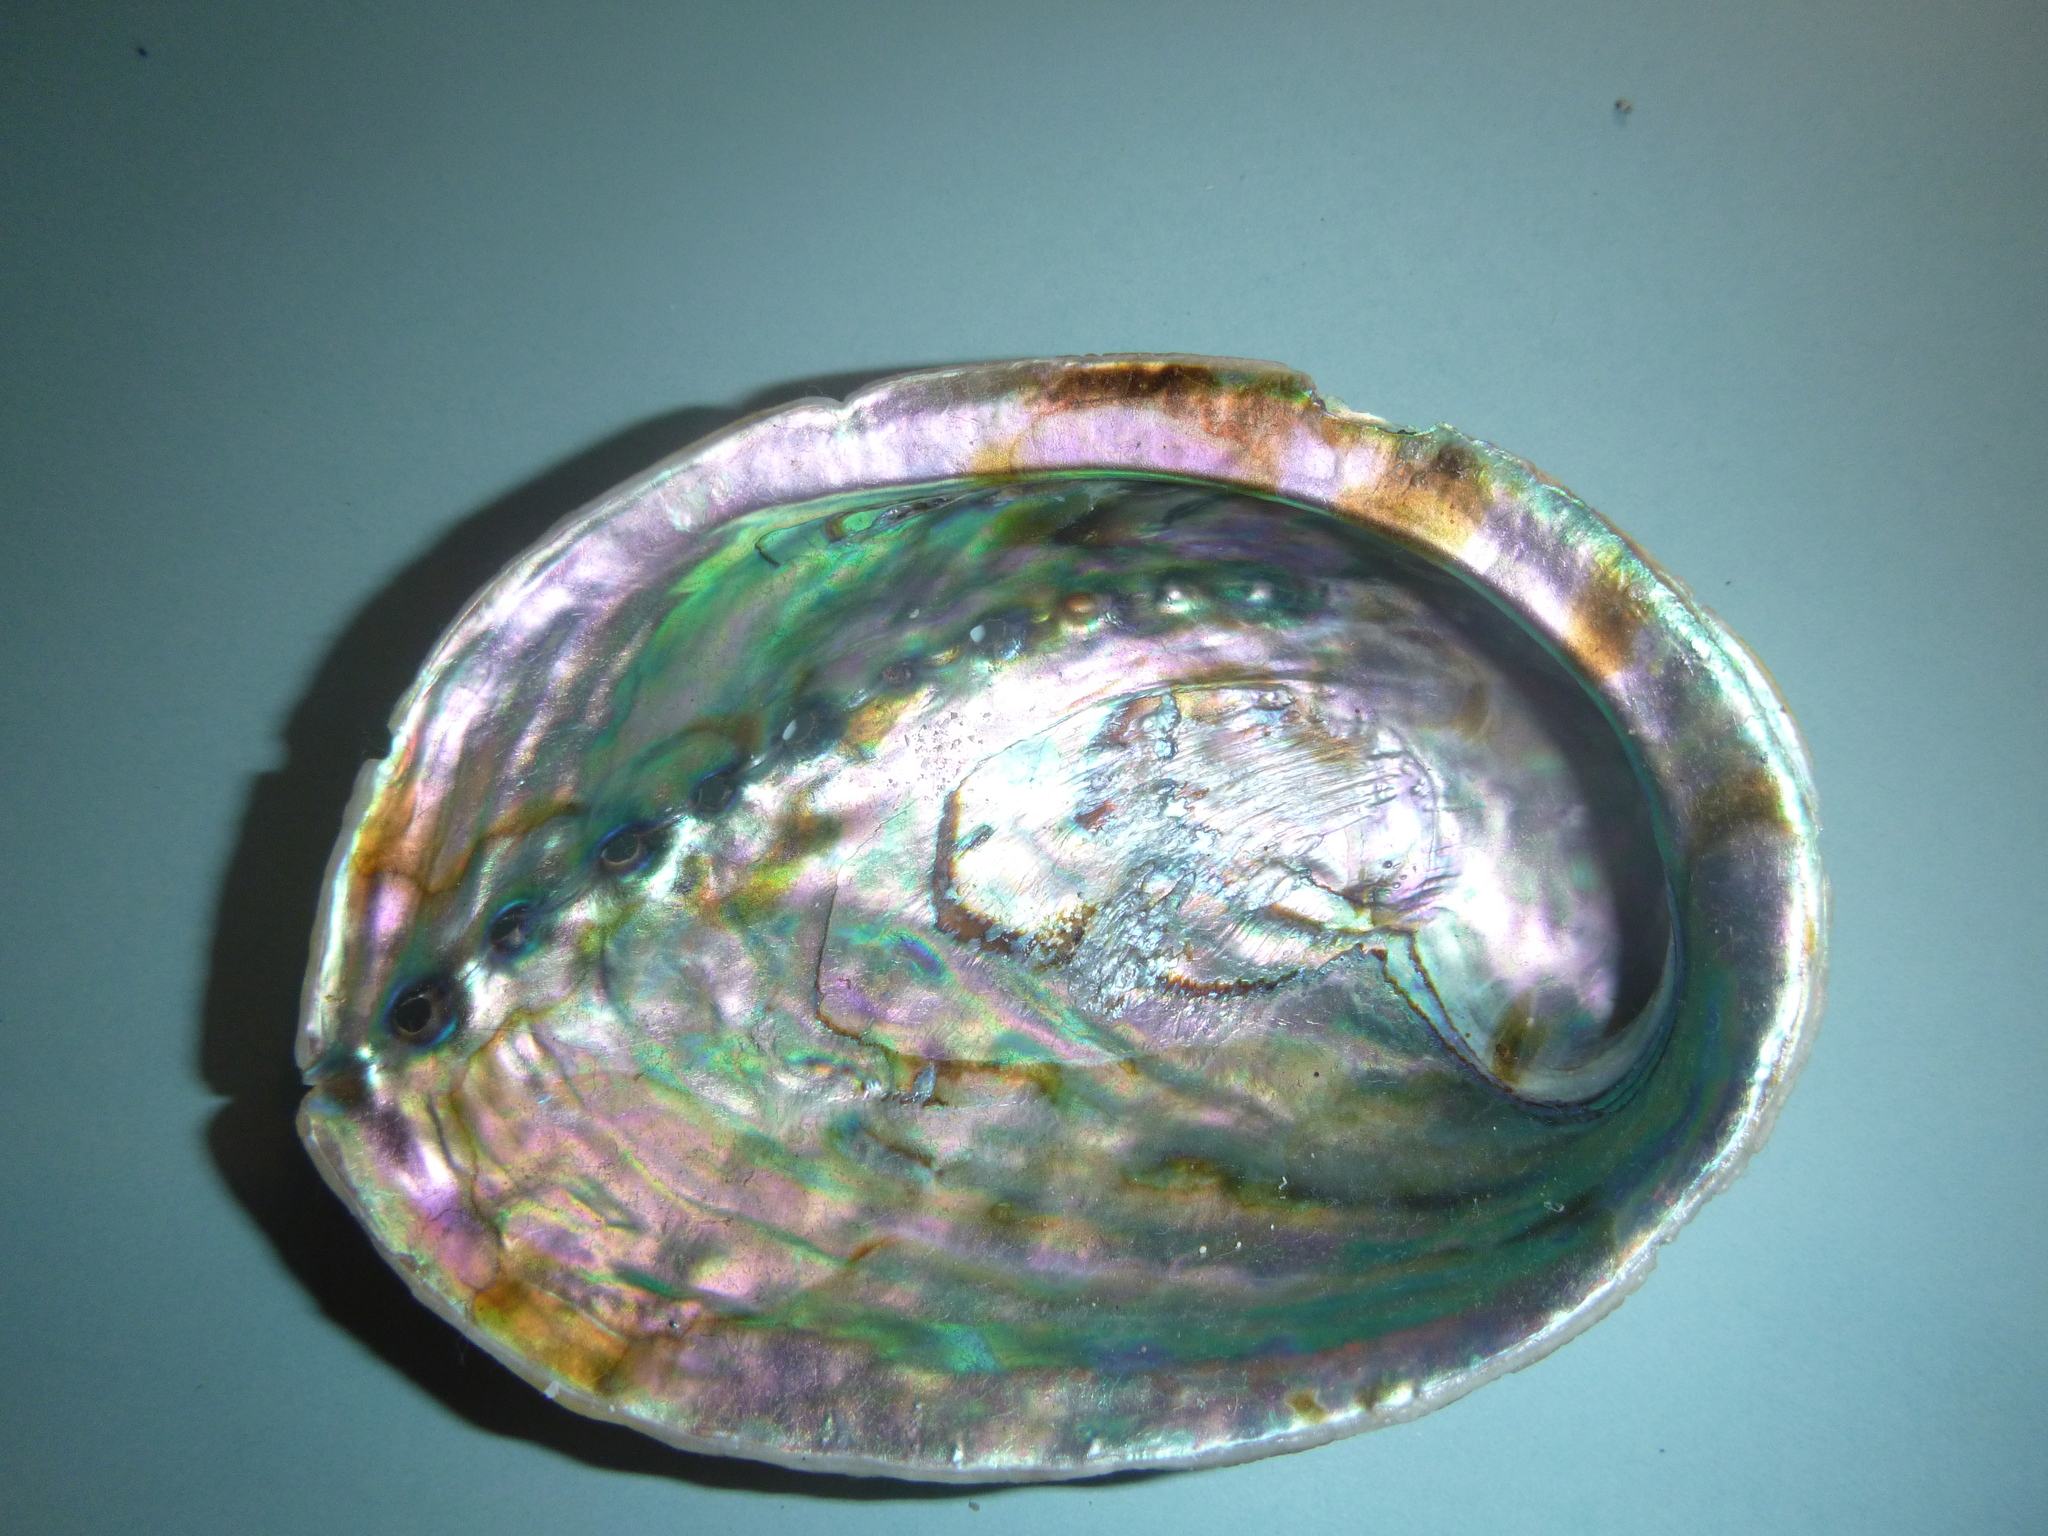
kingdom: Animalia
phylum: Mollusca
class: Gastropoda
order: Lepetellida
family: Haliotidae
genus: Haliotis
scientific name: Haliotis iris
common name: Abalone
